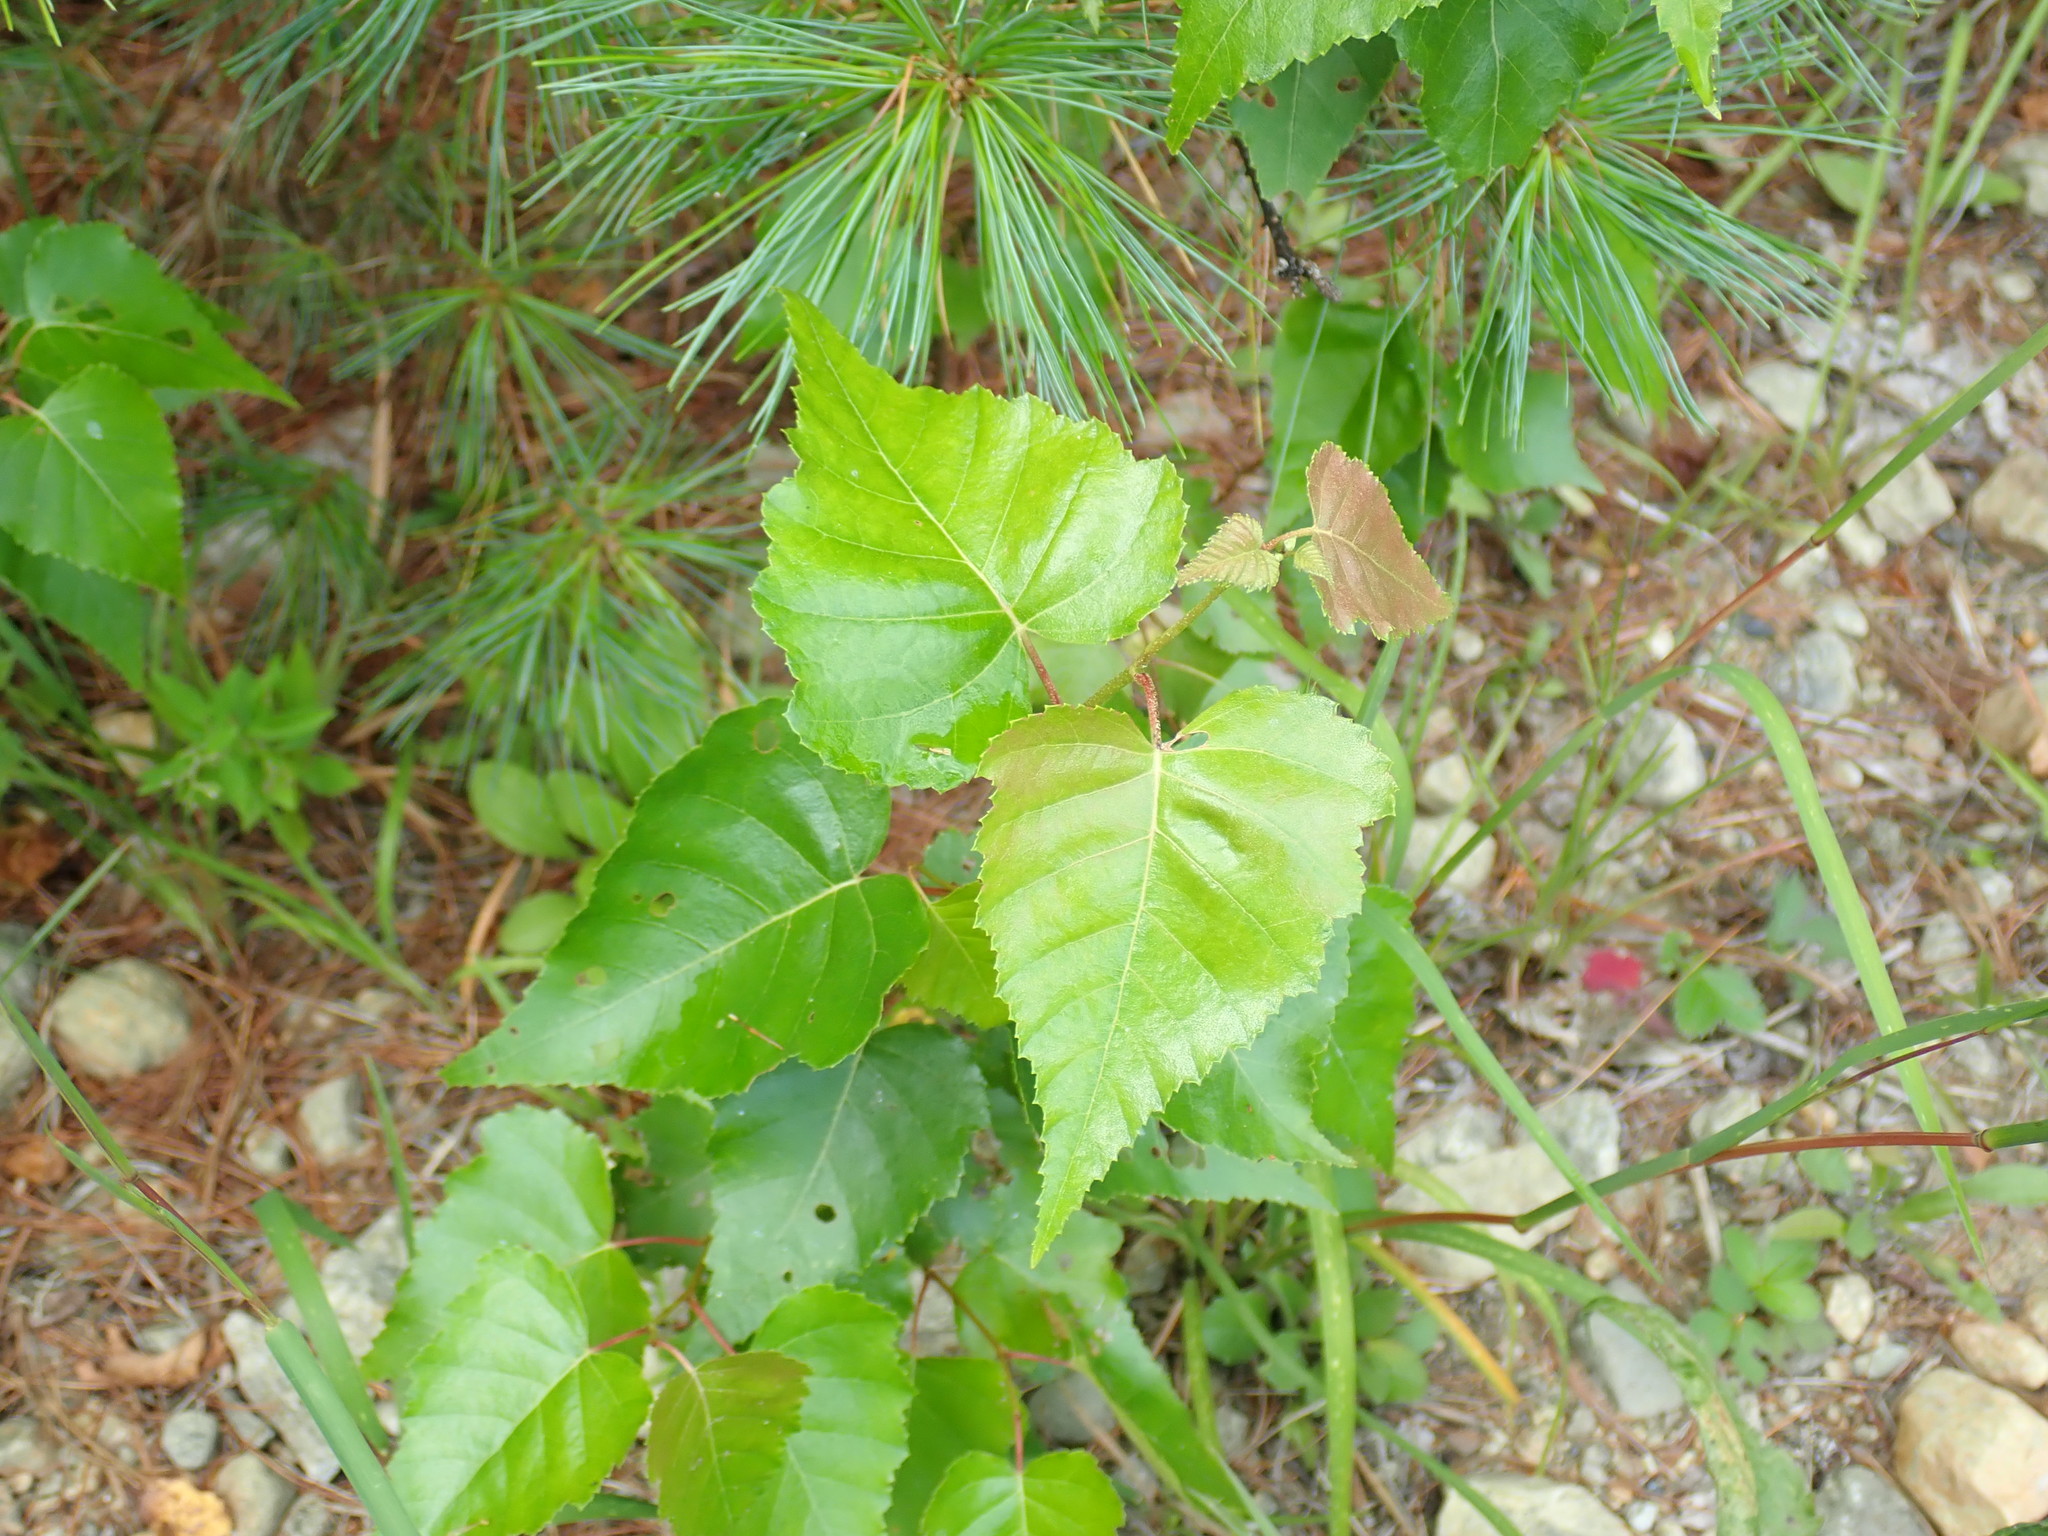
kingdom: Plantae
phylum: Tracheophyta
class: Magnoliopsida
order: Fagales
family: Betulaceae
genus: Betula
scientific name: Betula populifolia
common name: Fire birch
